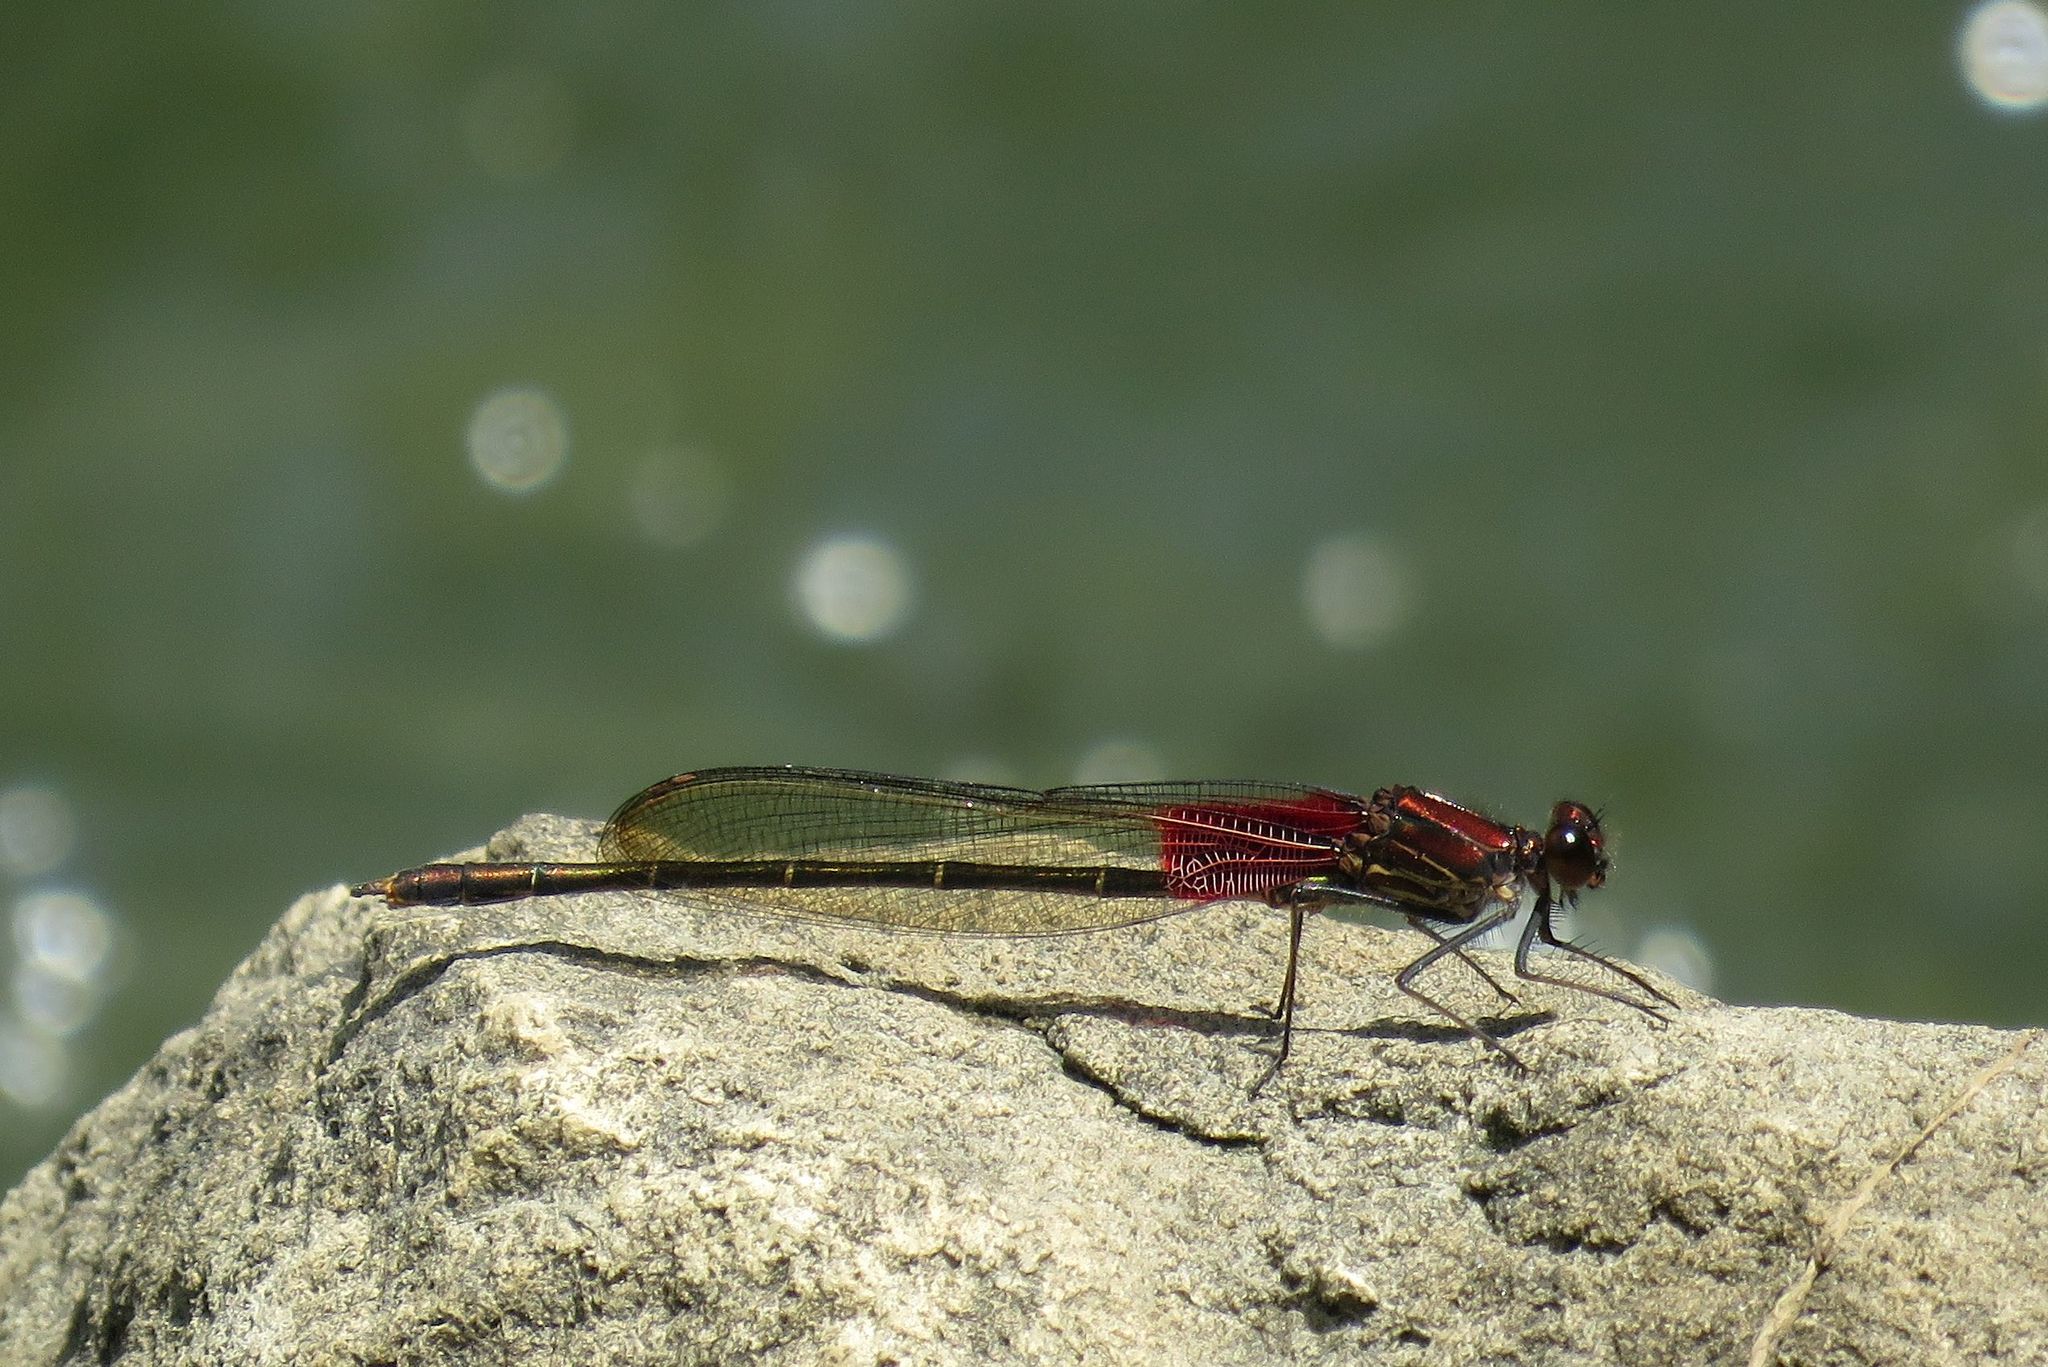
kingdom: Animalia
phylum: Arthropoda
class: Insecta
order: Odonata
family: Calopterygidae
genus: Hetaerina
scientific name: Hetaerina americana
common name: American rubyspot
